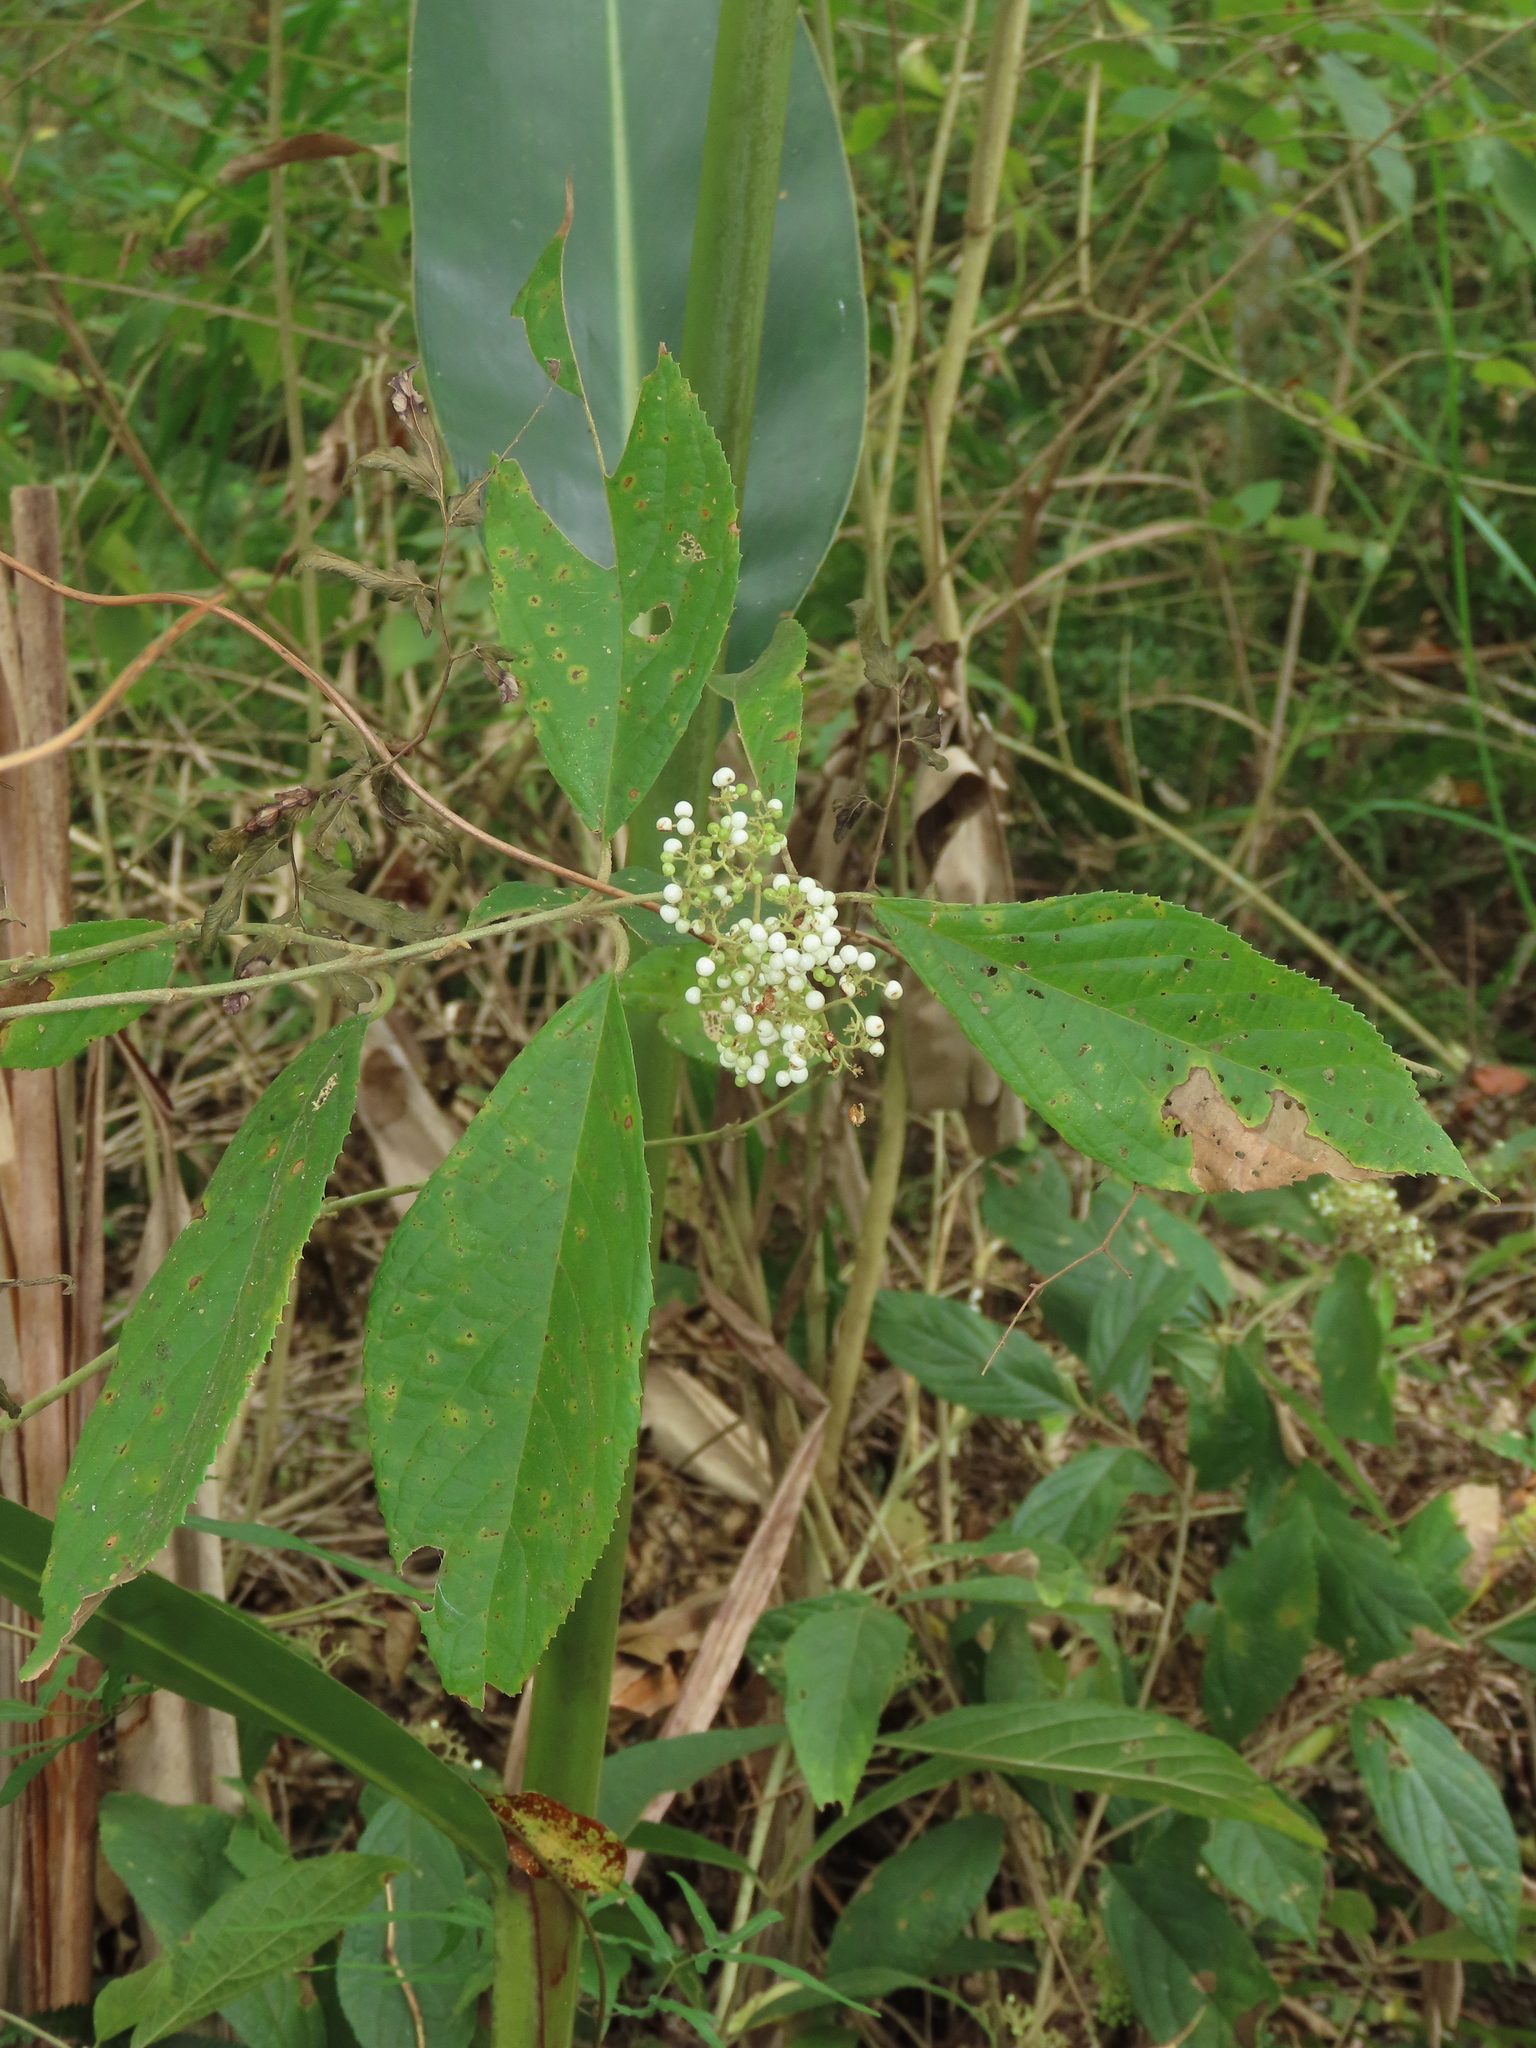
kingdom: Plantae
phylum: Tracheophyta
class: Magnoliopsida
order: Lamiales
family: Lamiaceae
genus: Callicarpa
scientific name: Callicarpa pedunculata
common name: Velvetleaf
